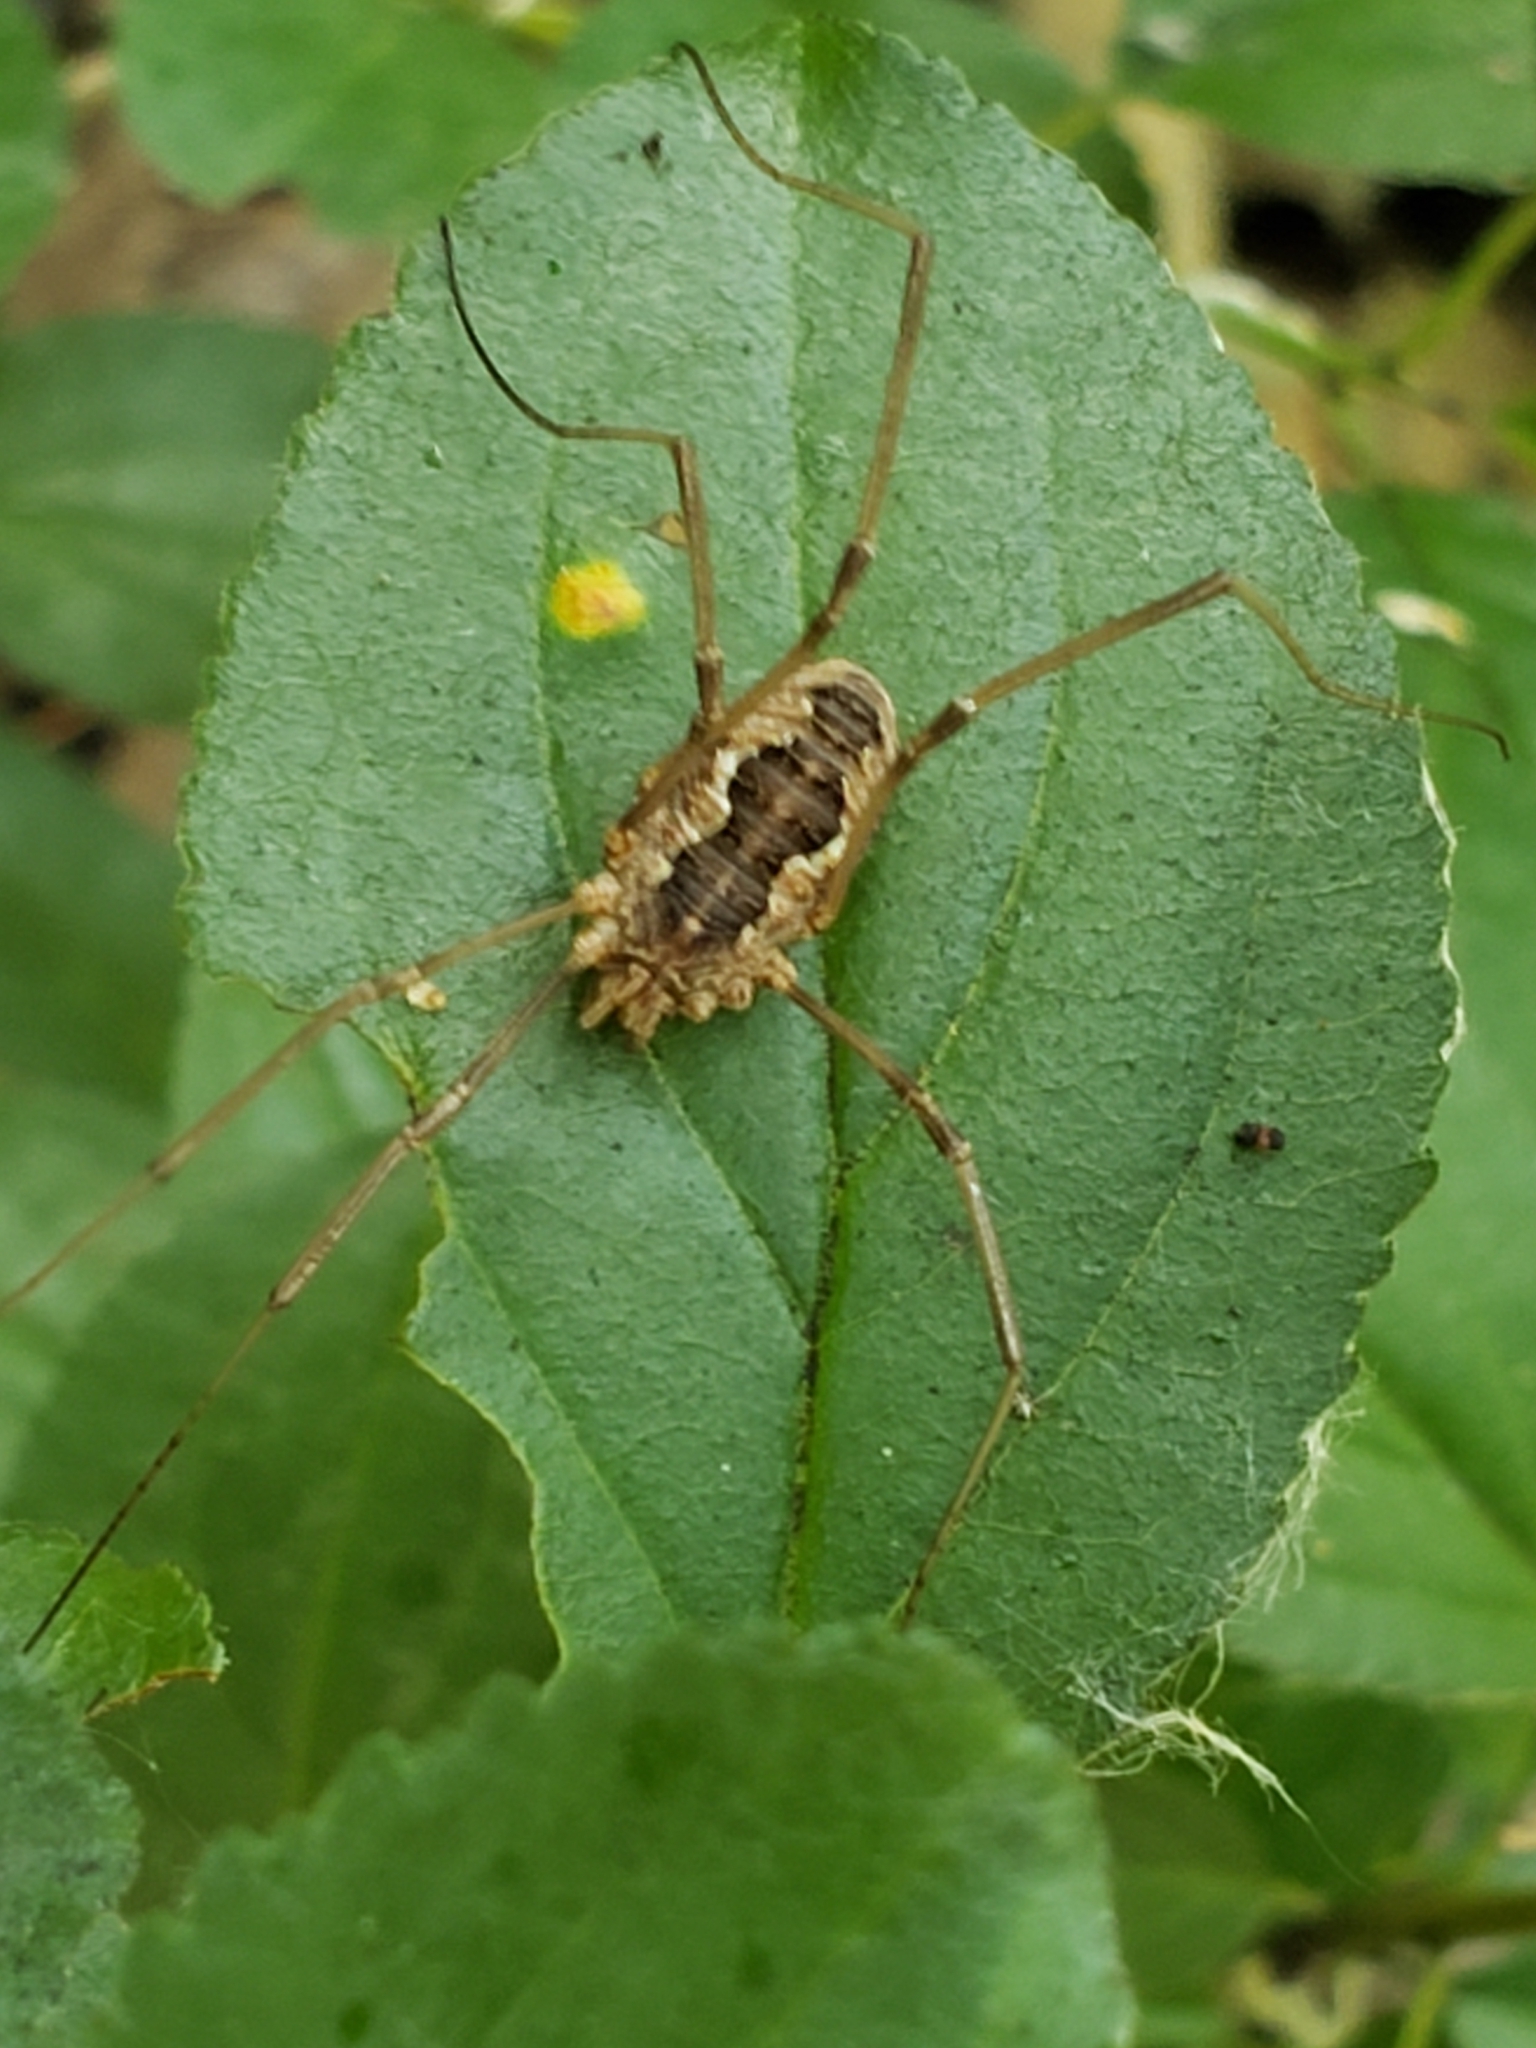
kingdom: Animalia
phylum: Arthropoda
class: Arachnida
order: Opiliones
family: Phalangiidae
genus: Phalangium
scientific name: Phalangium opilio
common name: Daddy longleg
